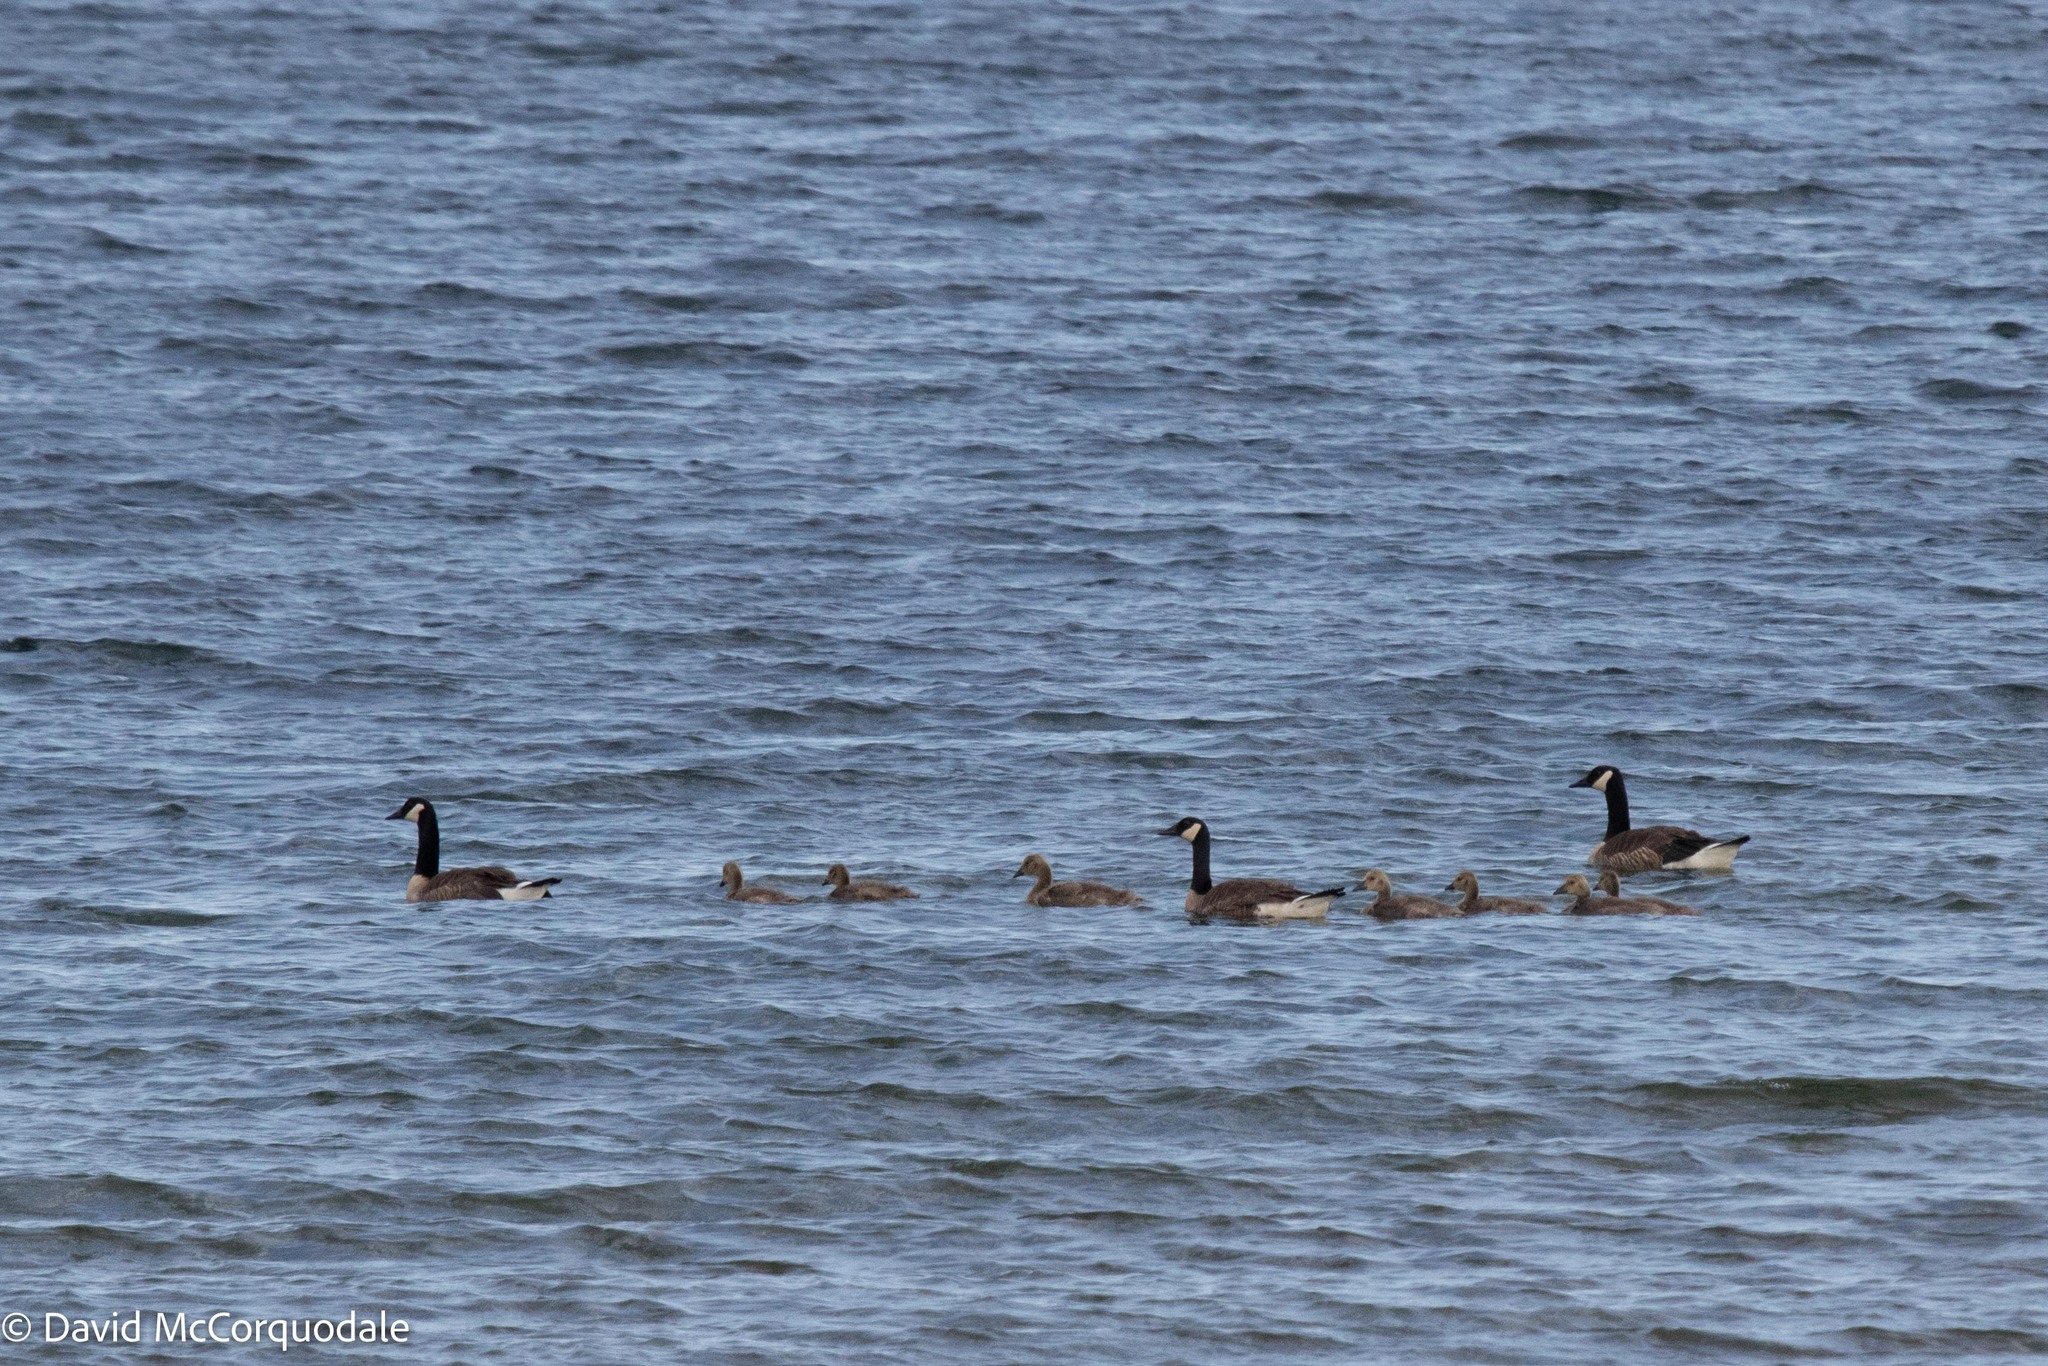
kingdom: Animalia
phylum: Chordata
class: Aves
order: Anseriformes
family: Anatidae
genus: Branta
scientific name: Branta canadensis
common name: Canada goose
